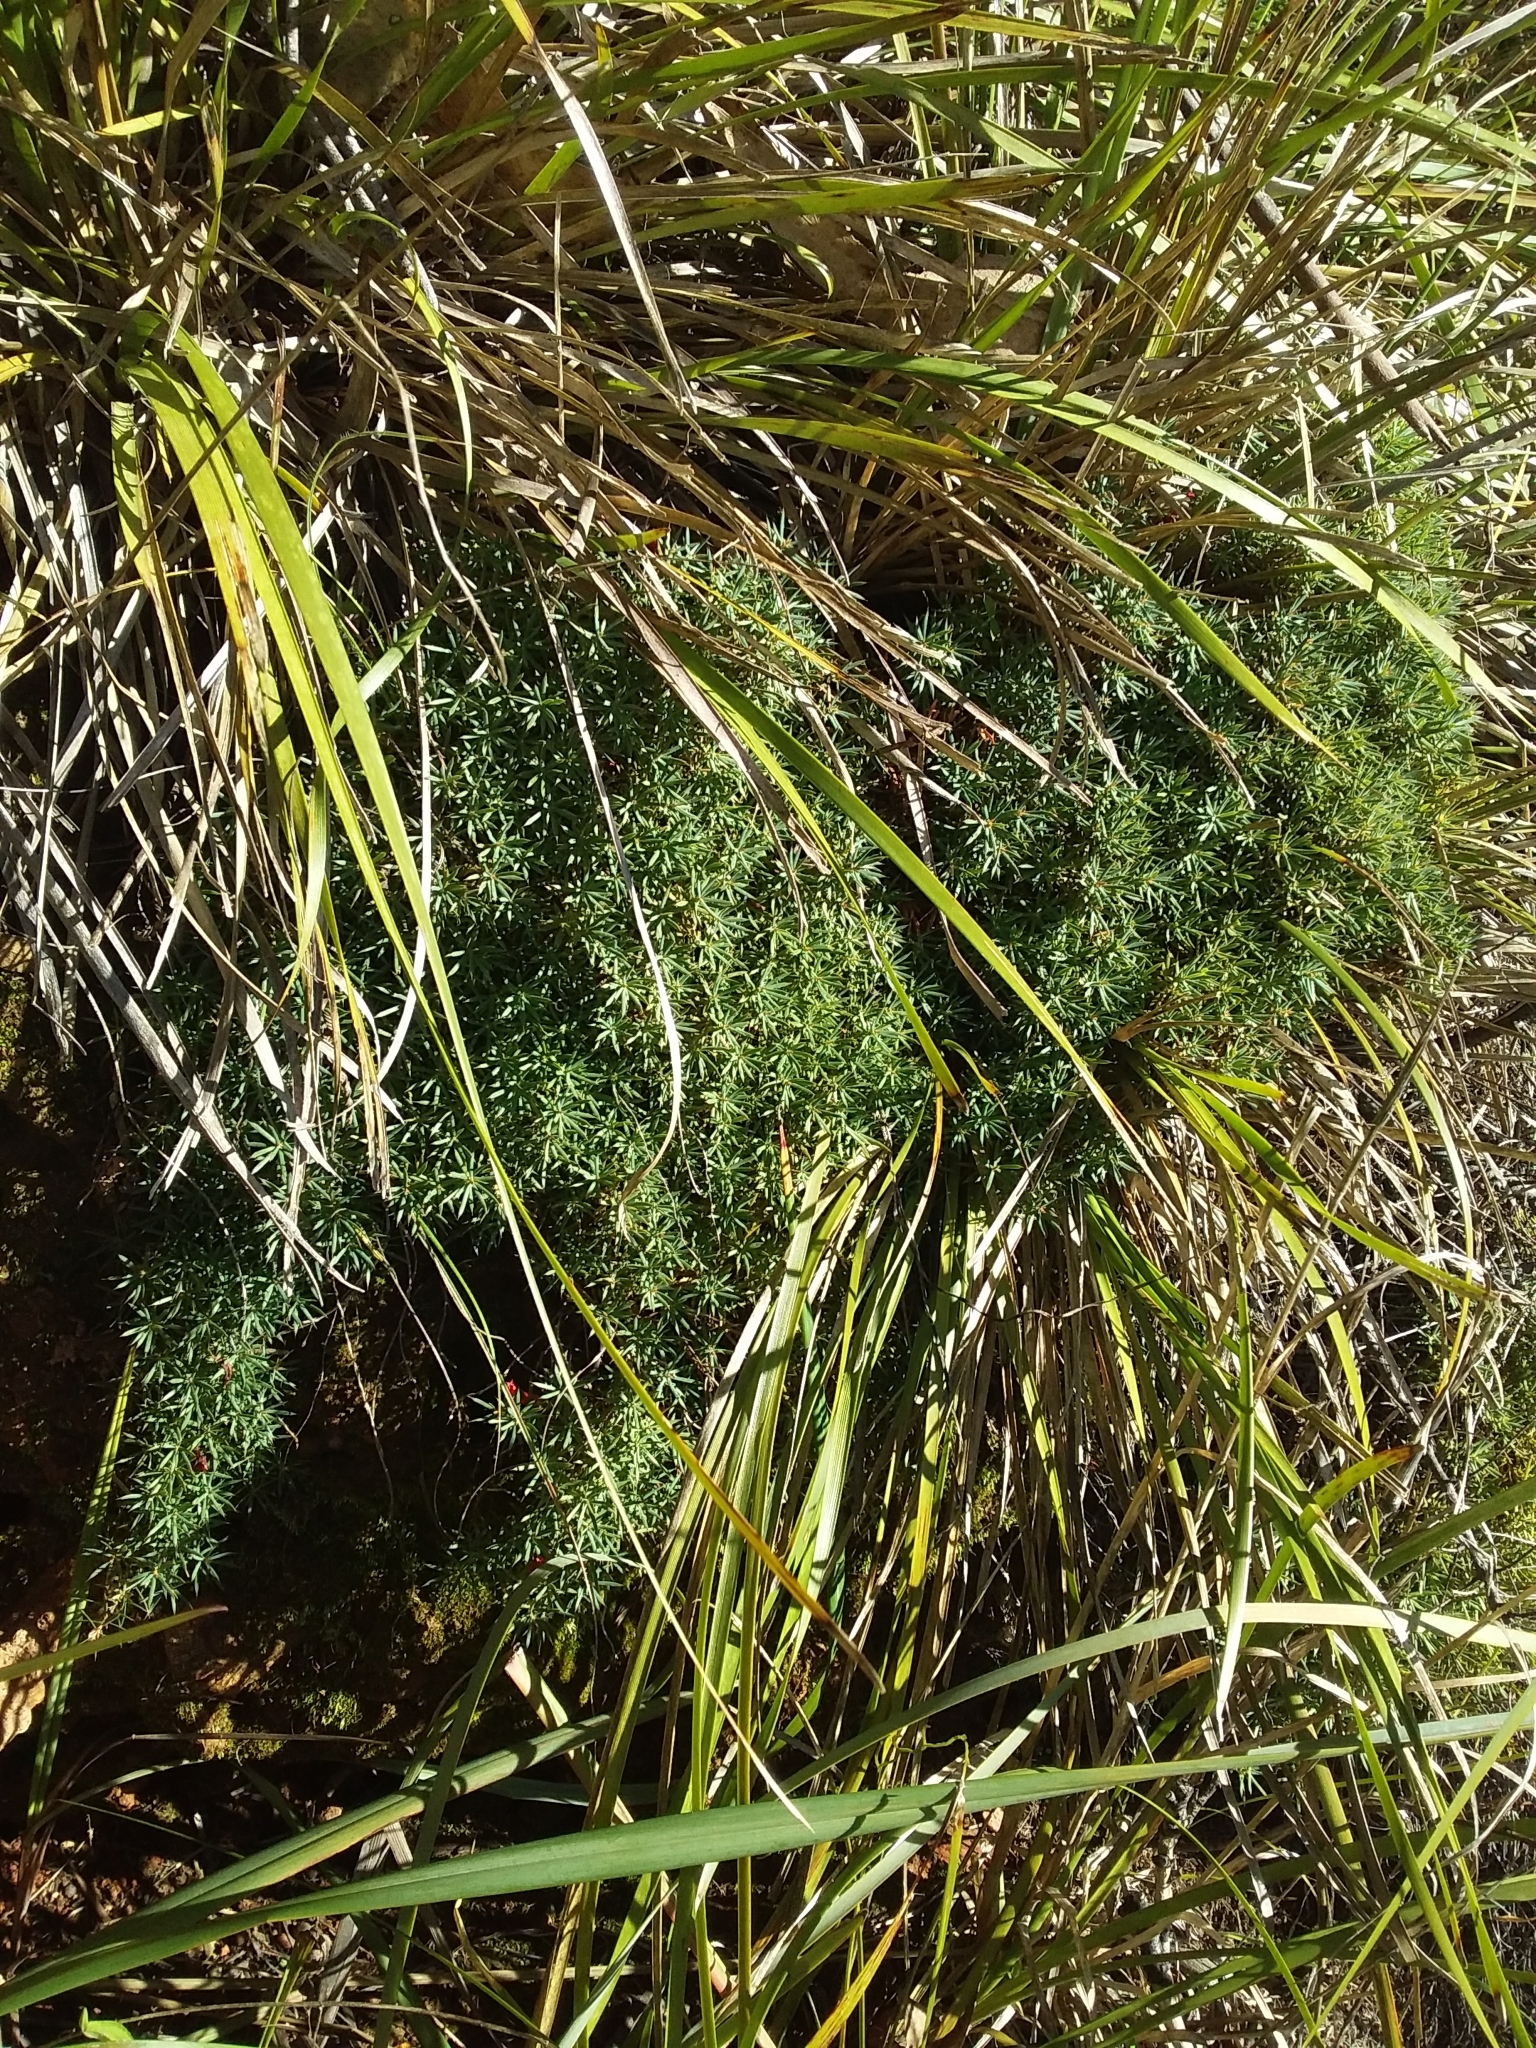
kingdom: Plantae
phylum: Tracheophyta
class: Magnoliopsida
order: Ericales
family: Ericaceae
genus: Styphelia
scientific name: Styphelia humifusa
